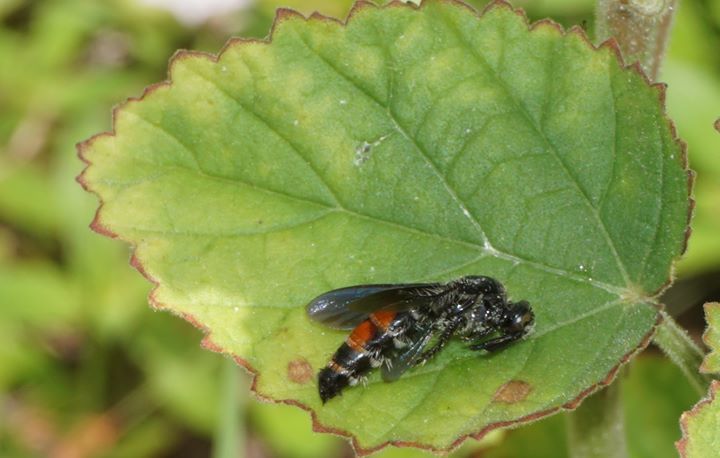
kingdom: Animalia
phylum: Arthropoda
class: Insecta
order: Hymenoptera
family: Scoliidae
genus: Dielis
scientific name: Dielis dorsata
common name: Scoliid wasp
